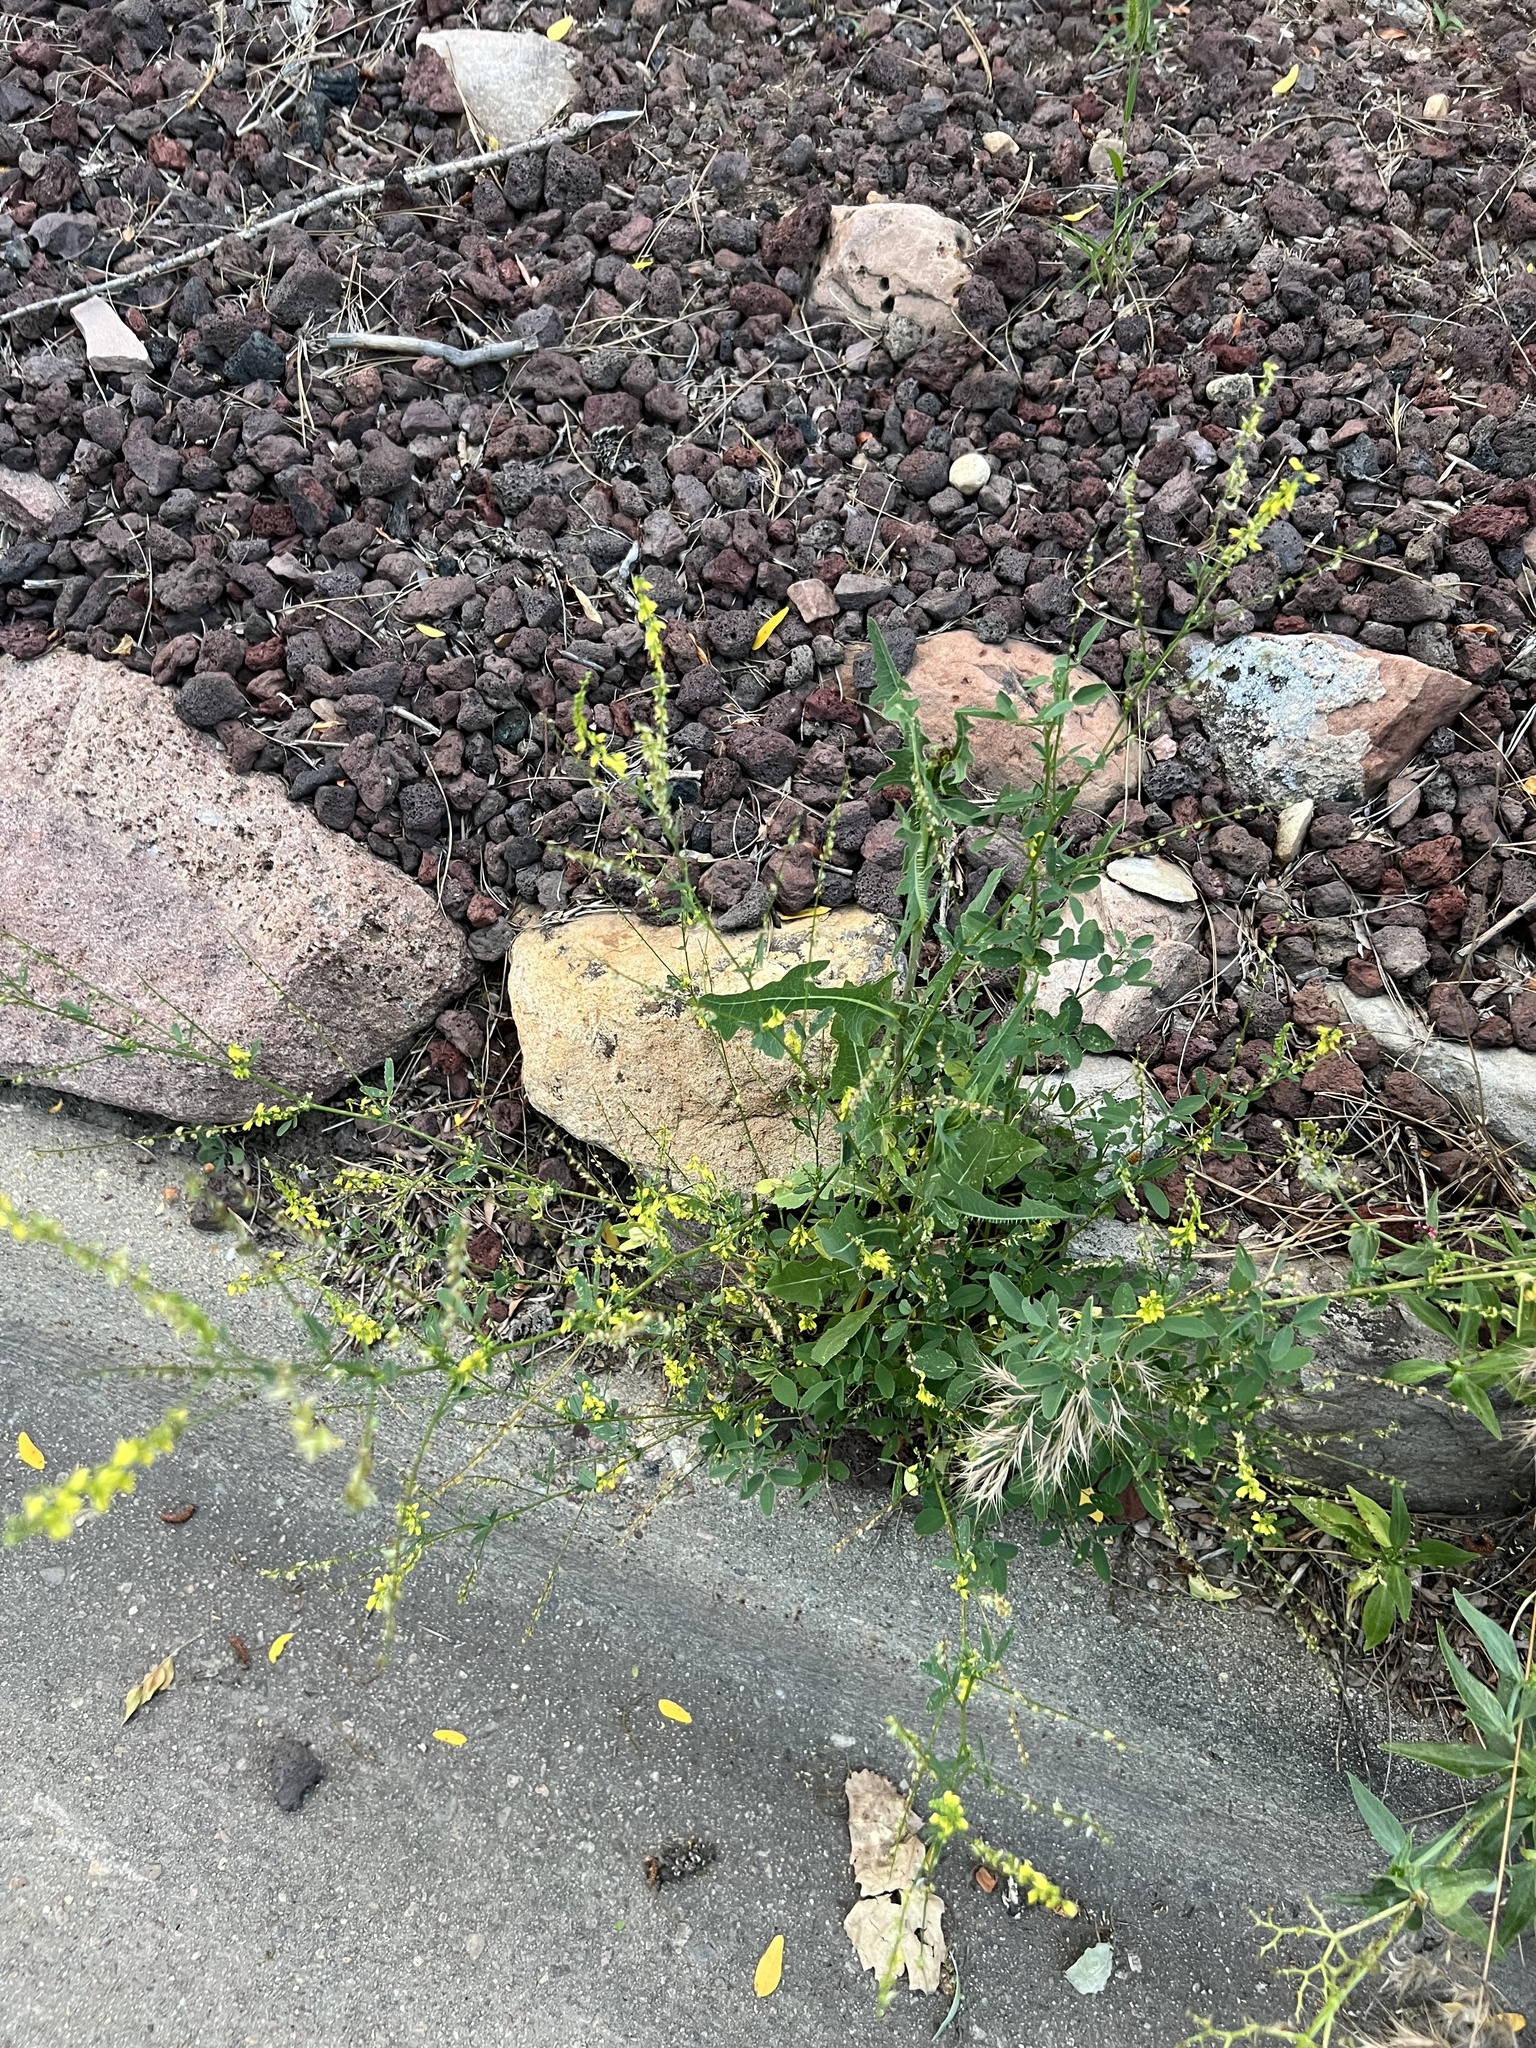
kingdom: Plantae
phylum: Tracheophyta
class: Magnoliopsida
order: Fabales
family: Fabaceae
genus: Melilotus
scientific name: Melilotus officinalis
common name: Sweetclover
